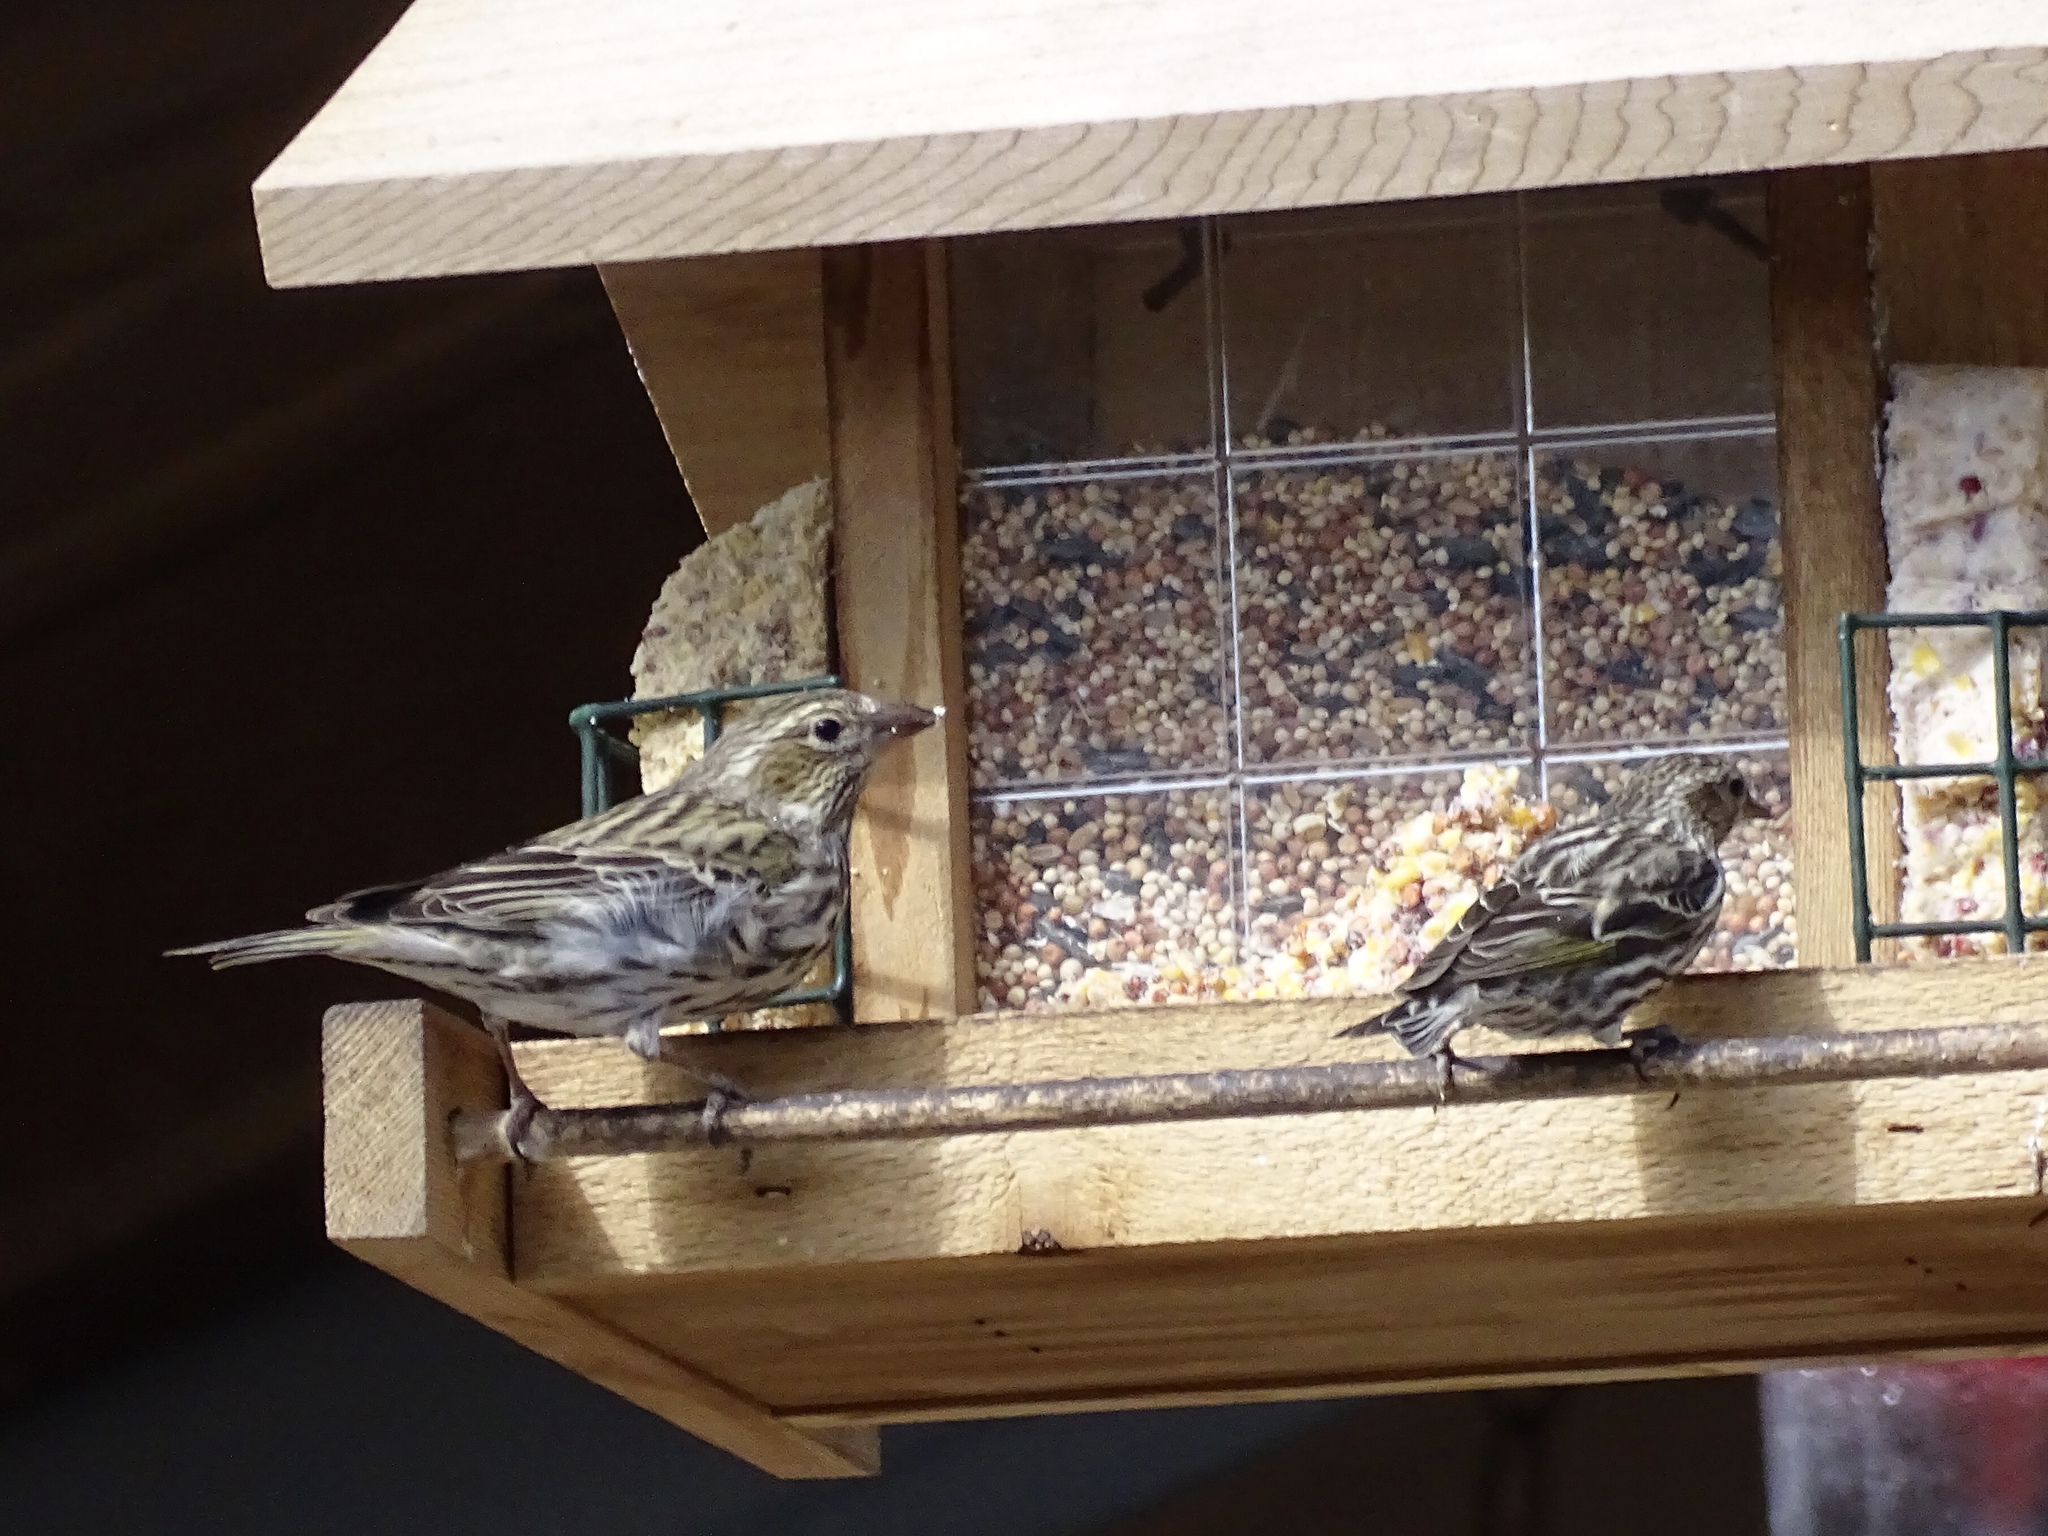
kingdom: Animalia
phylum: Chordata
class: Aves
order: Passeriformes
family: Fringillidae
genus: Haemorhous
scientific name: Haemorhous cassinii
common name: Cassin's finch
